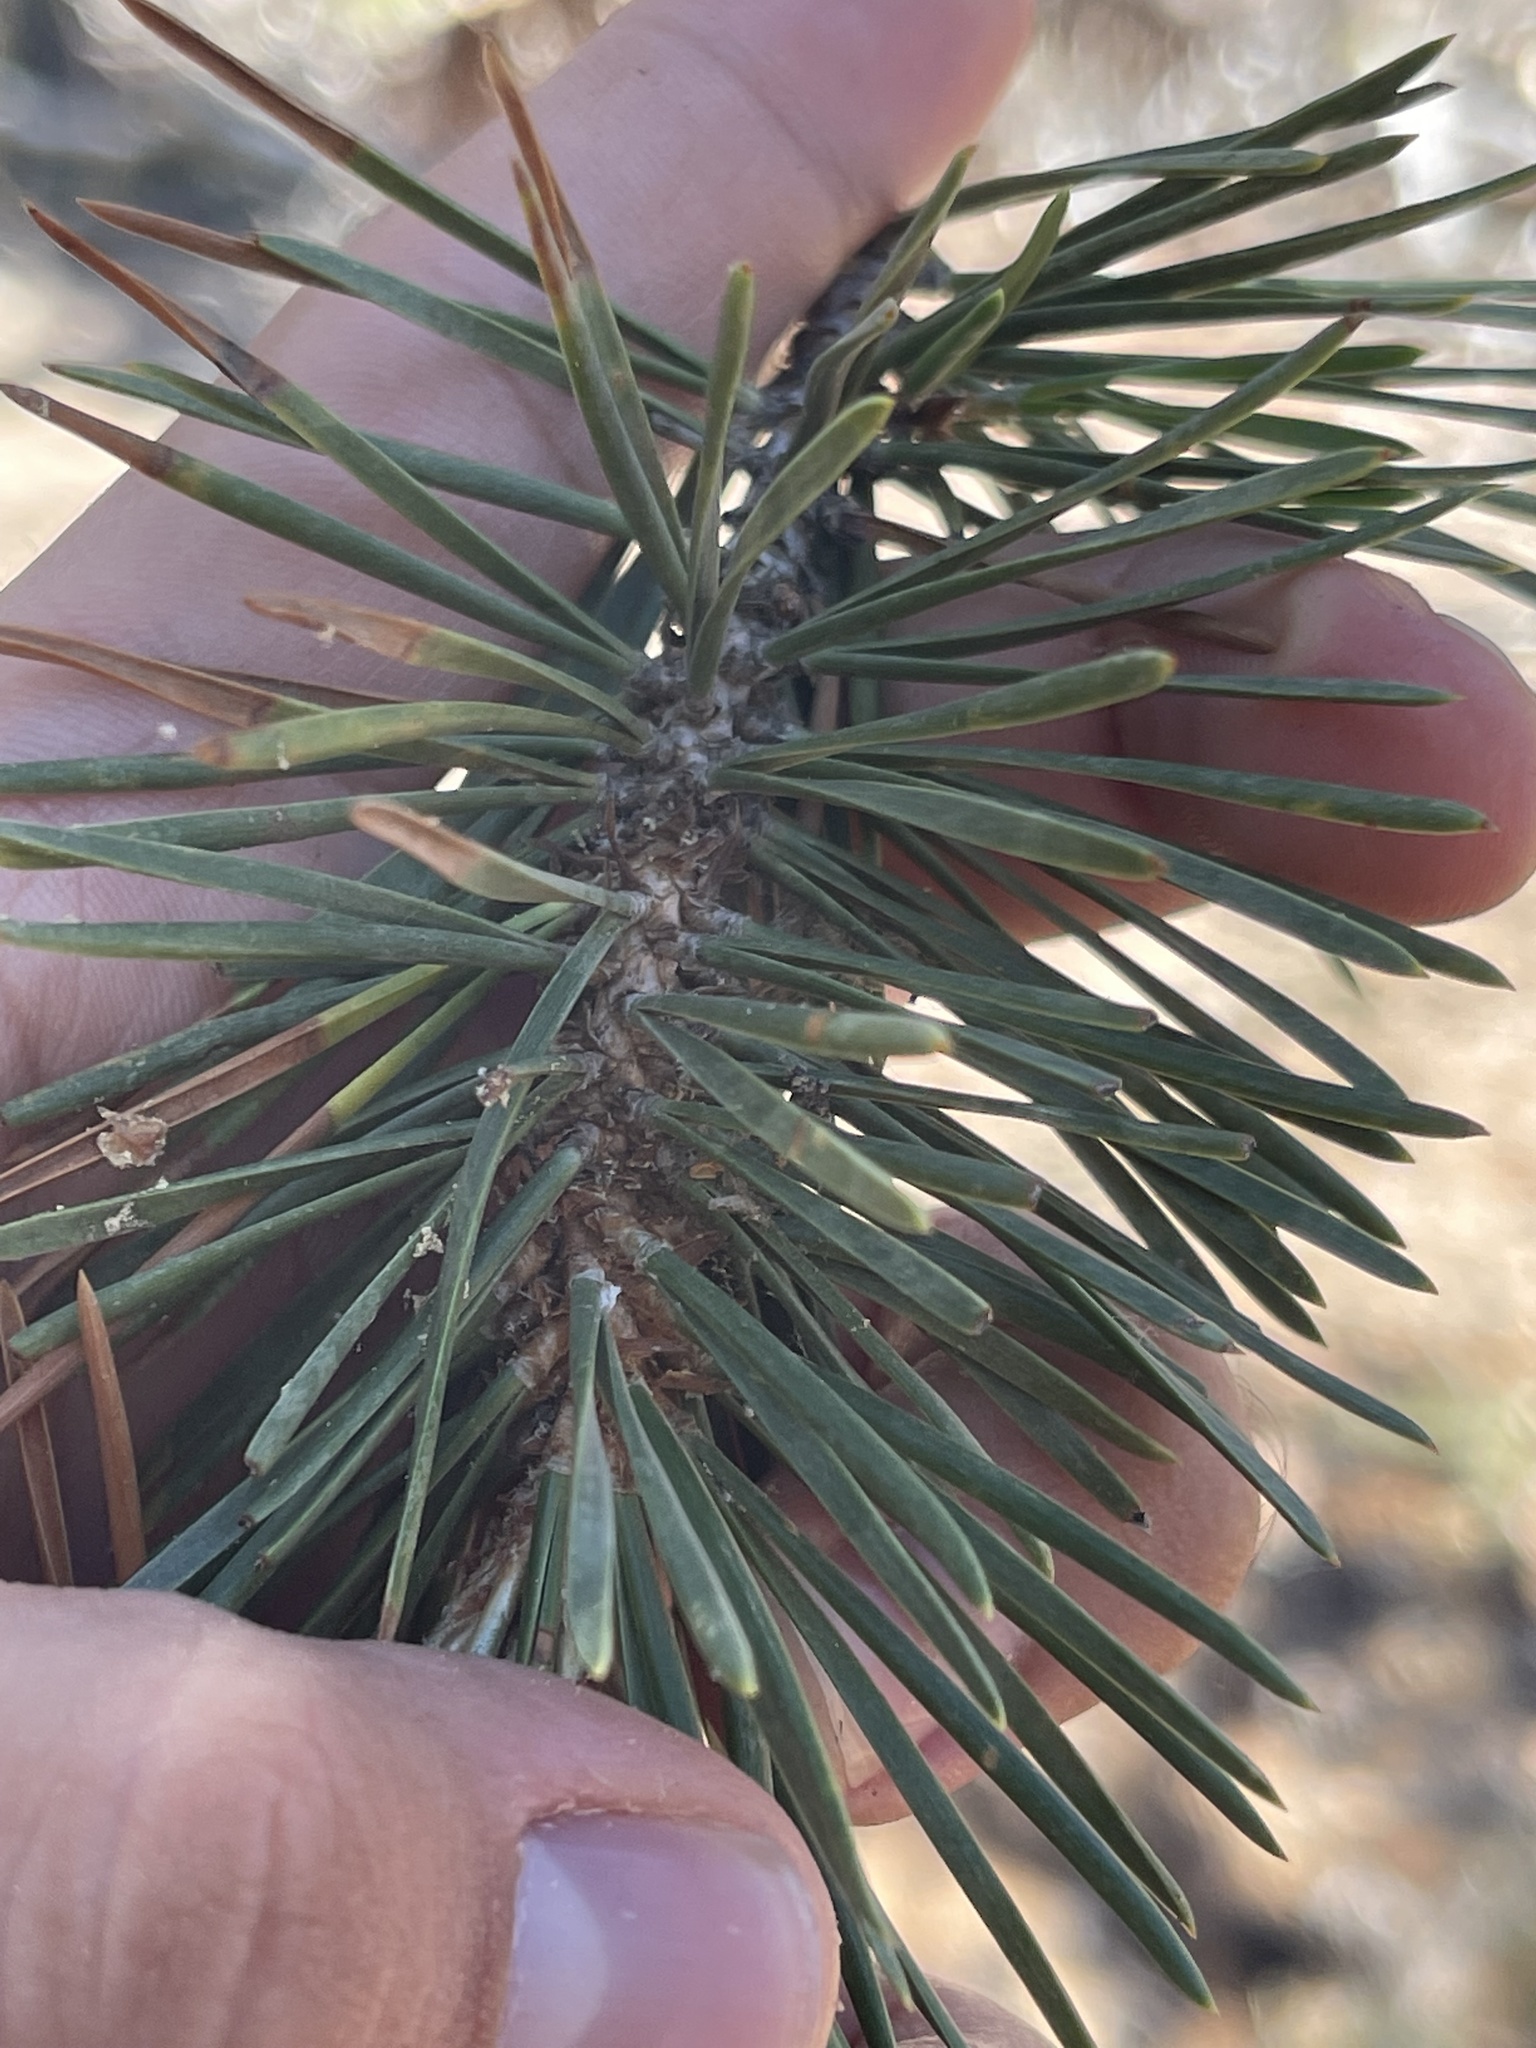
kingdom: Plantae
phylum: Tracheophyta
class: Pinopsida
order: Pinales
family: Pinaceae
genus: Pinus
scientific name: Pinus contorta
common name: Lodgepole pine
